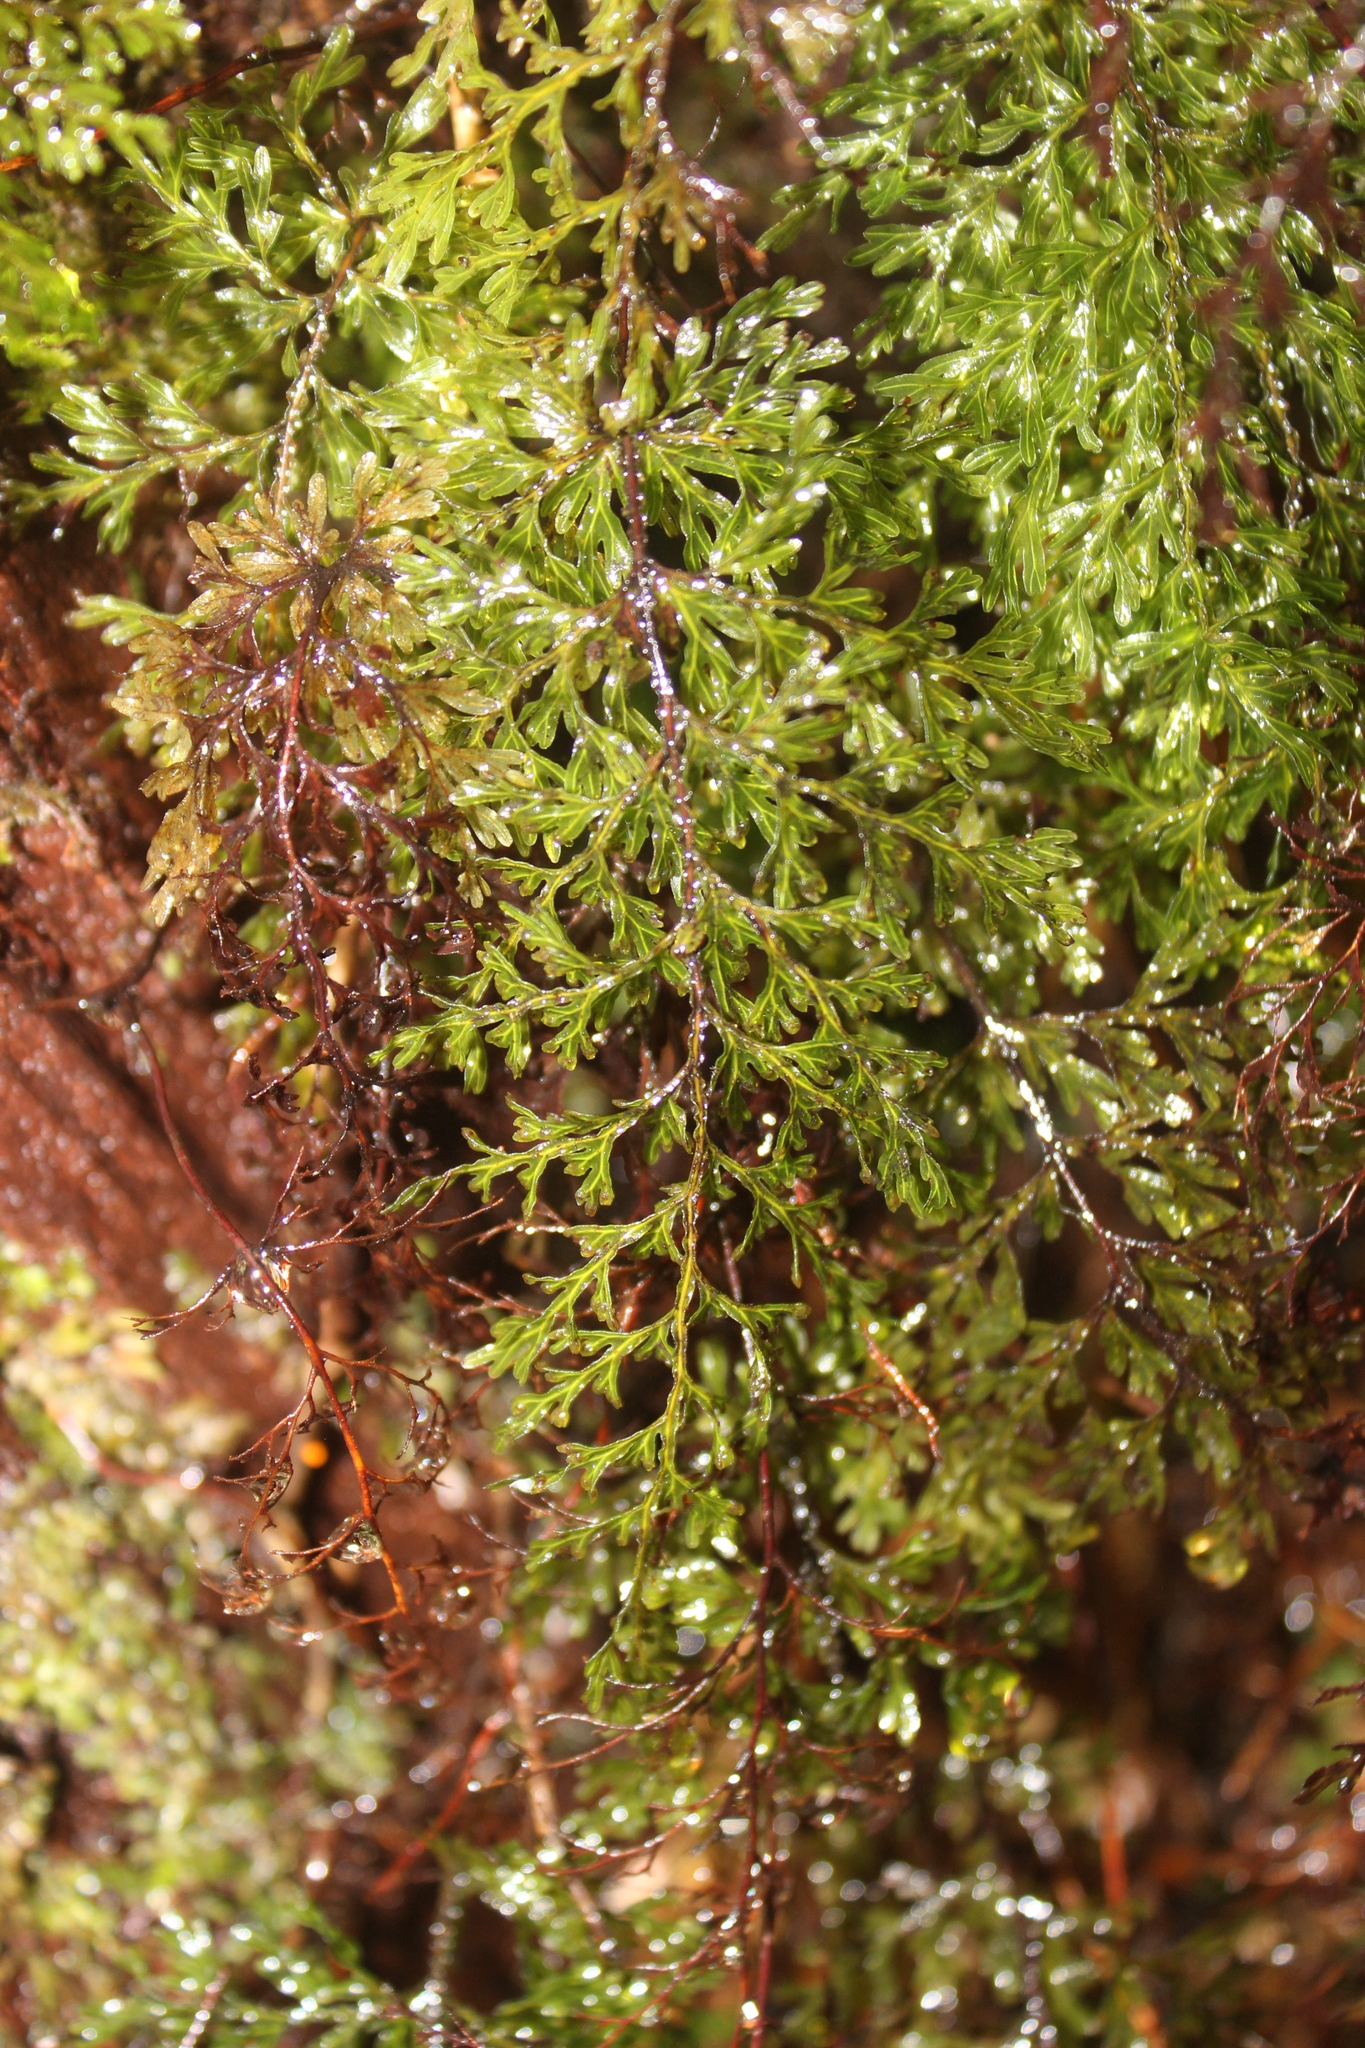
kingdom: Plantae
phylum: Tracheophyta
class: Polypodiopsida
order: Hymenophyllales
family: Hymenophyllaceae
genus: Hymenophyllum
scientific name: Hymenophyllum flexuosum
